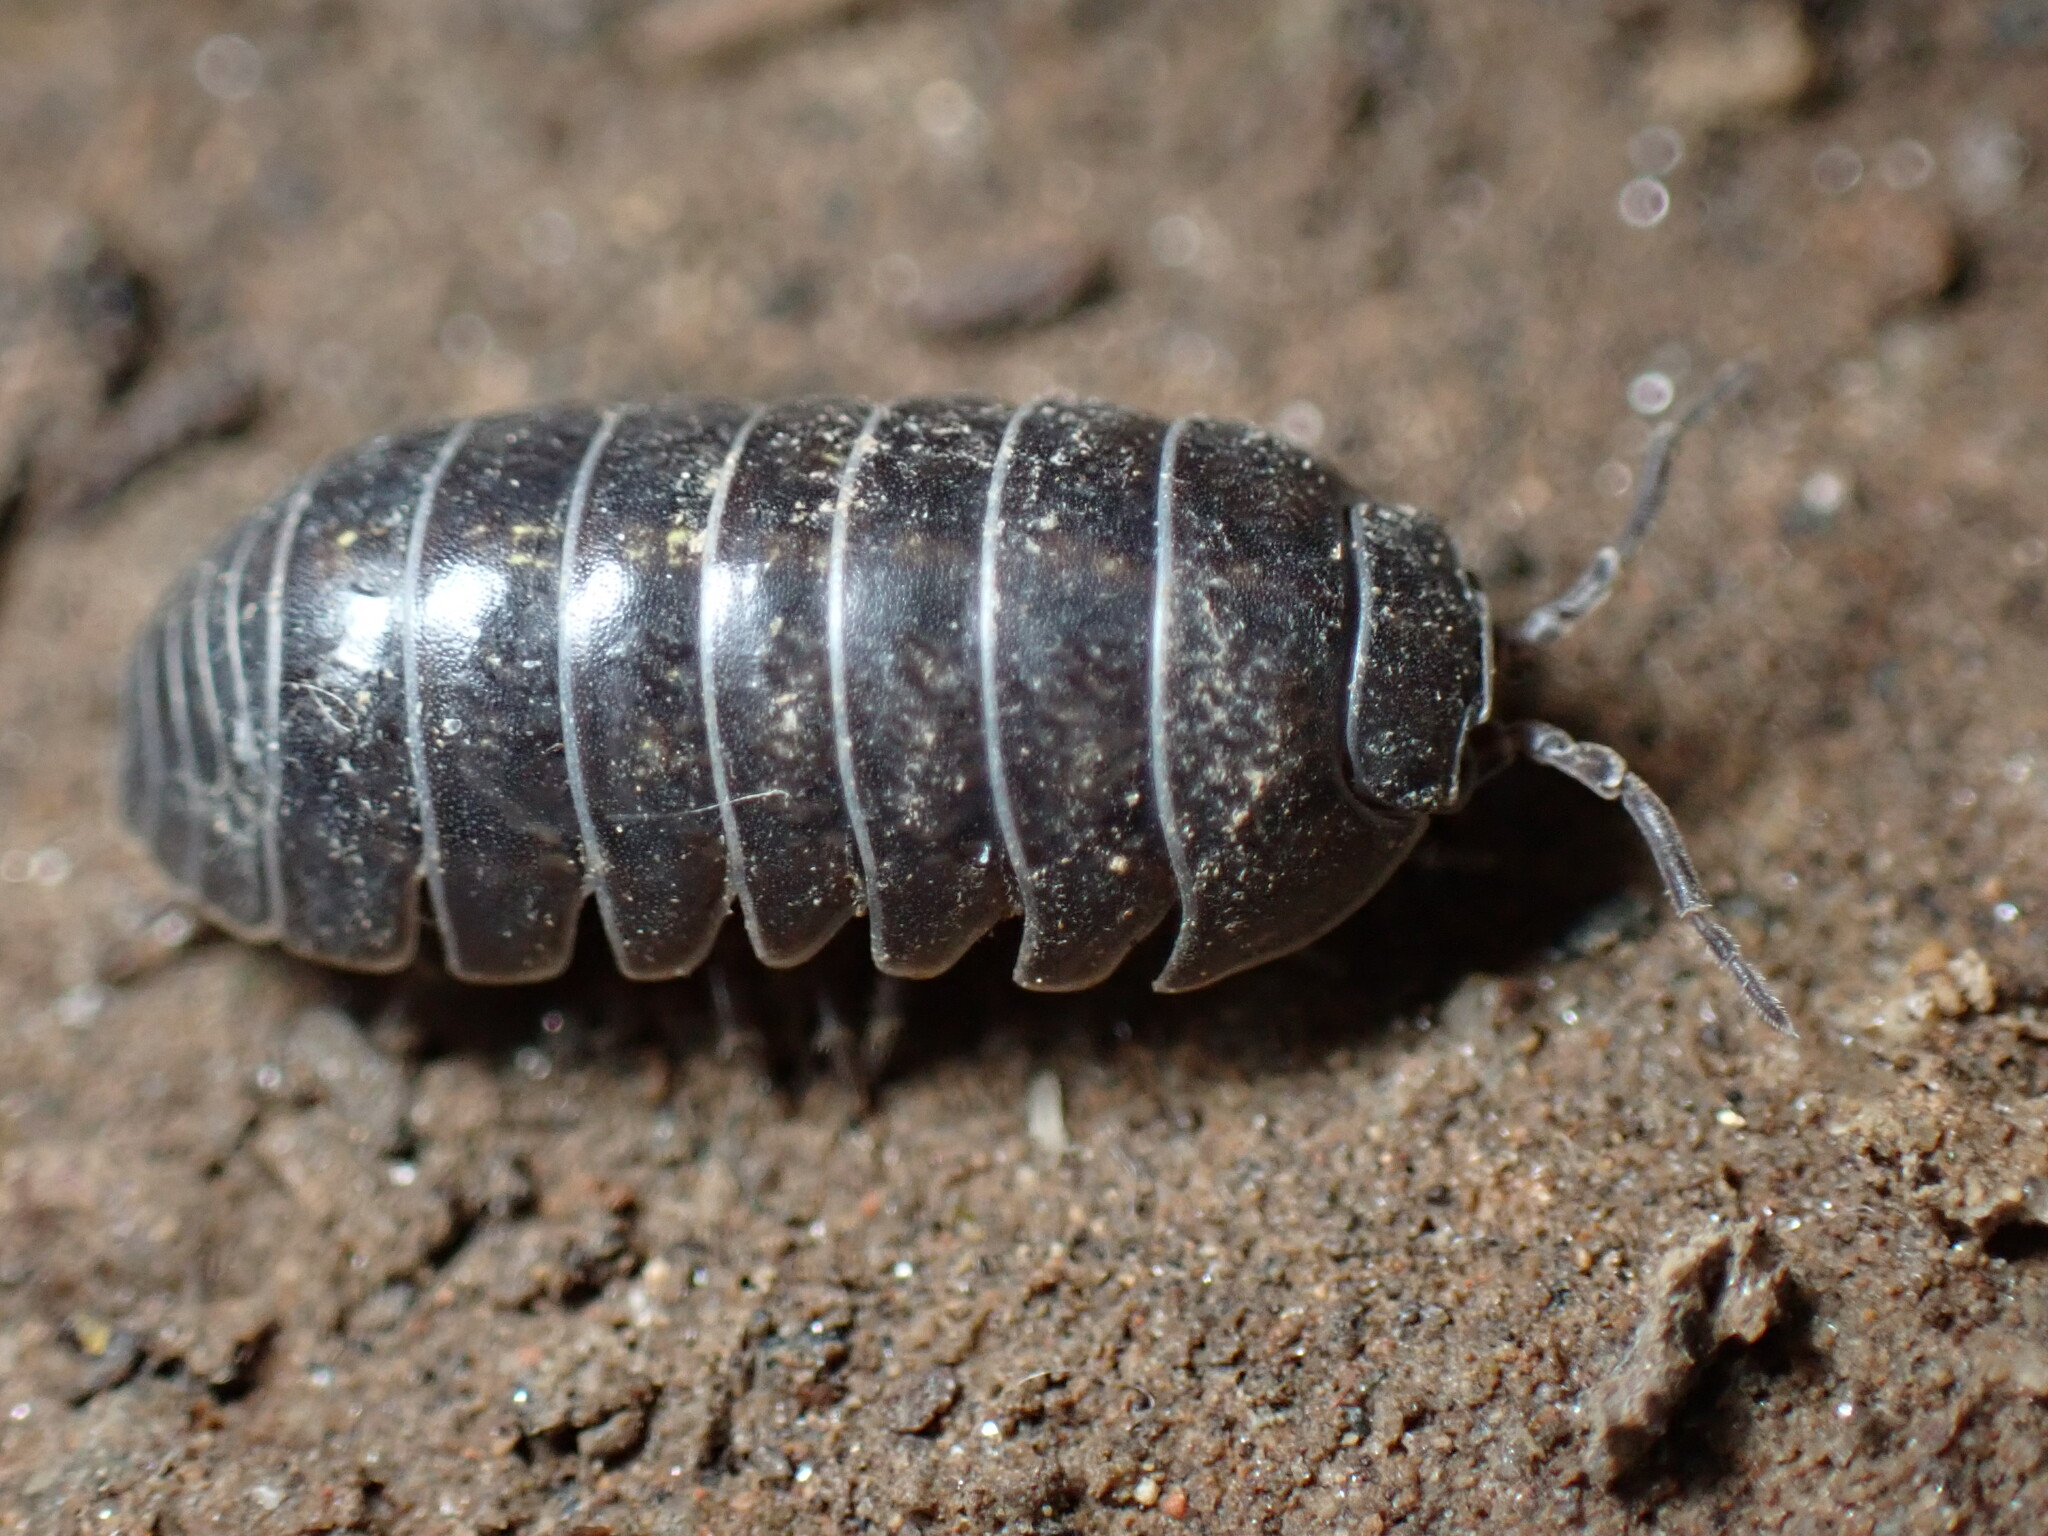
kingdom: Animalia
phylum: Arthropoda
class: Malacostraca
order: Isopoda
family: Armadillidiidae
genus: Armadillidium
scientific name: Armadillidium vulgare
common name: Common pill woodlouse
